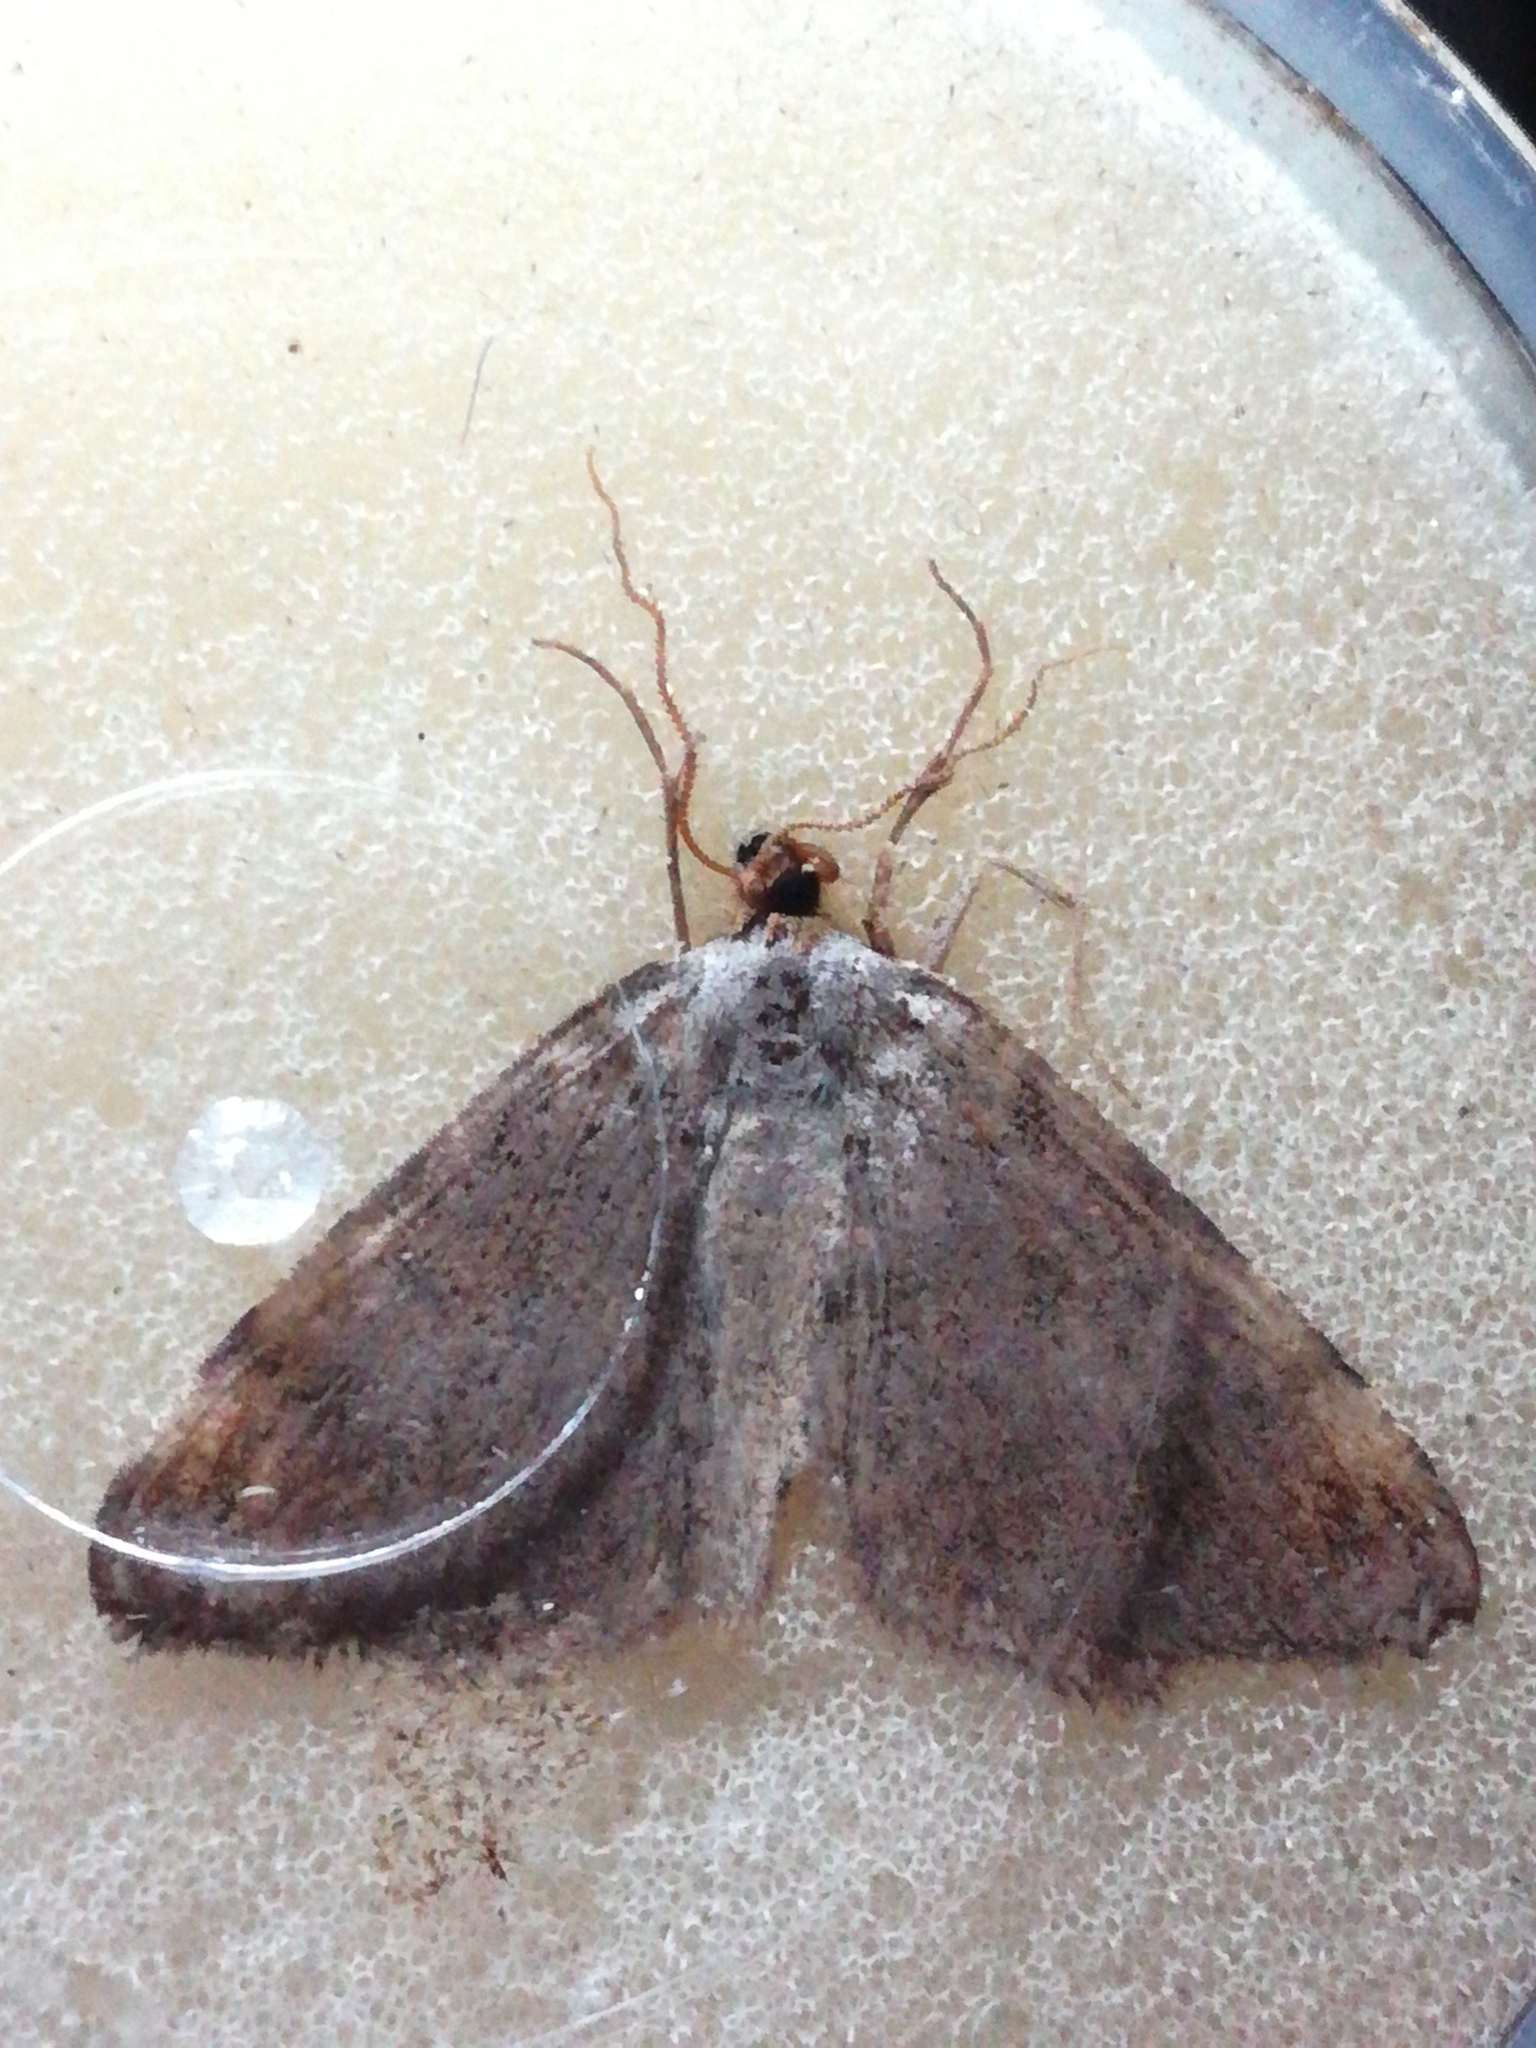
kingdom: Animalia
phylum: Arthropoda
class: Insecta
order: Lepidoptera
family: Geometridae
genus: Macaria
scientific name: Macaria liturata
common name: Tawny-barred angle
